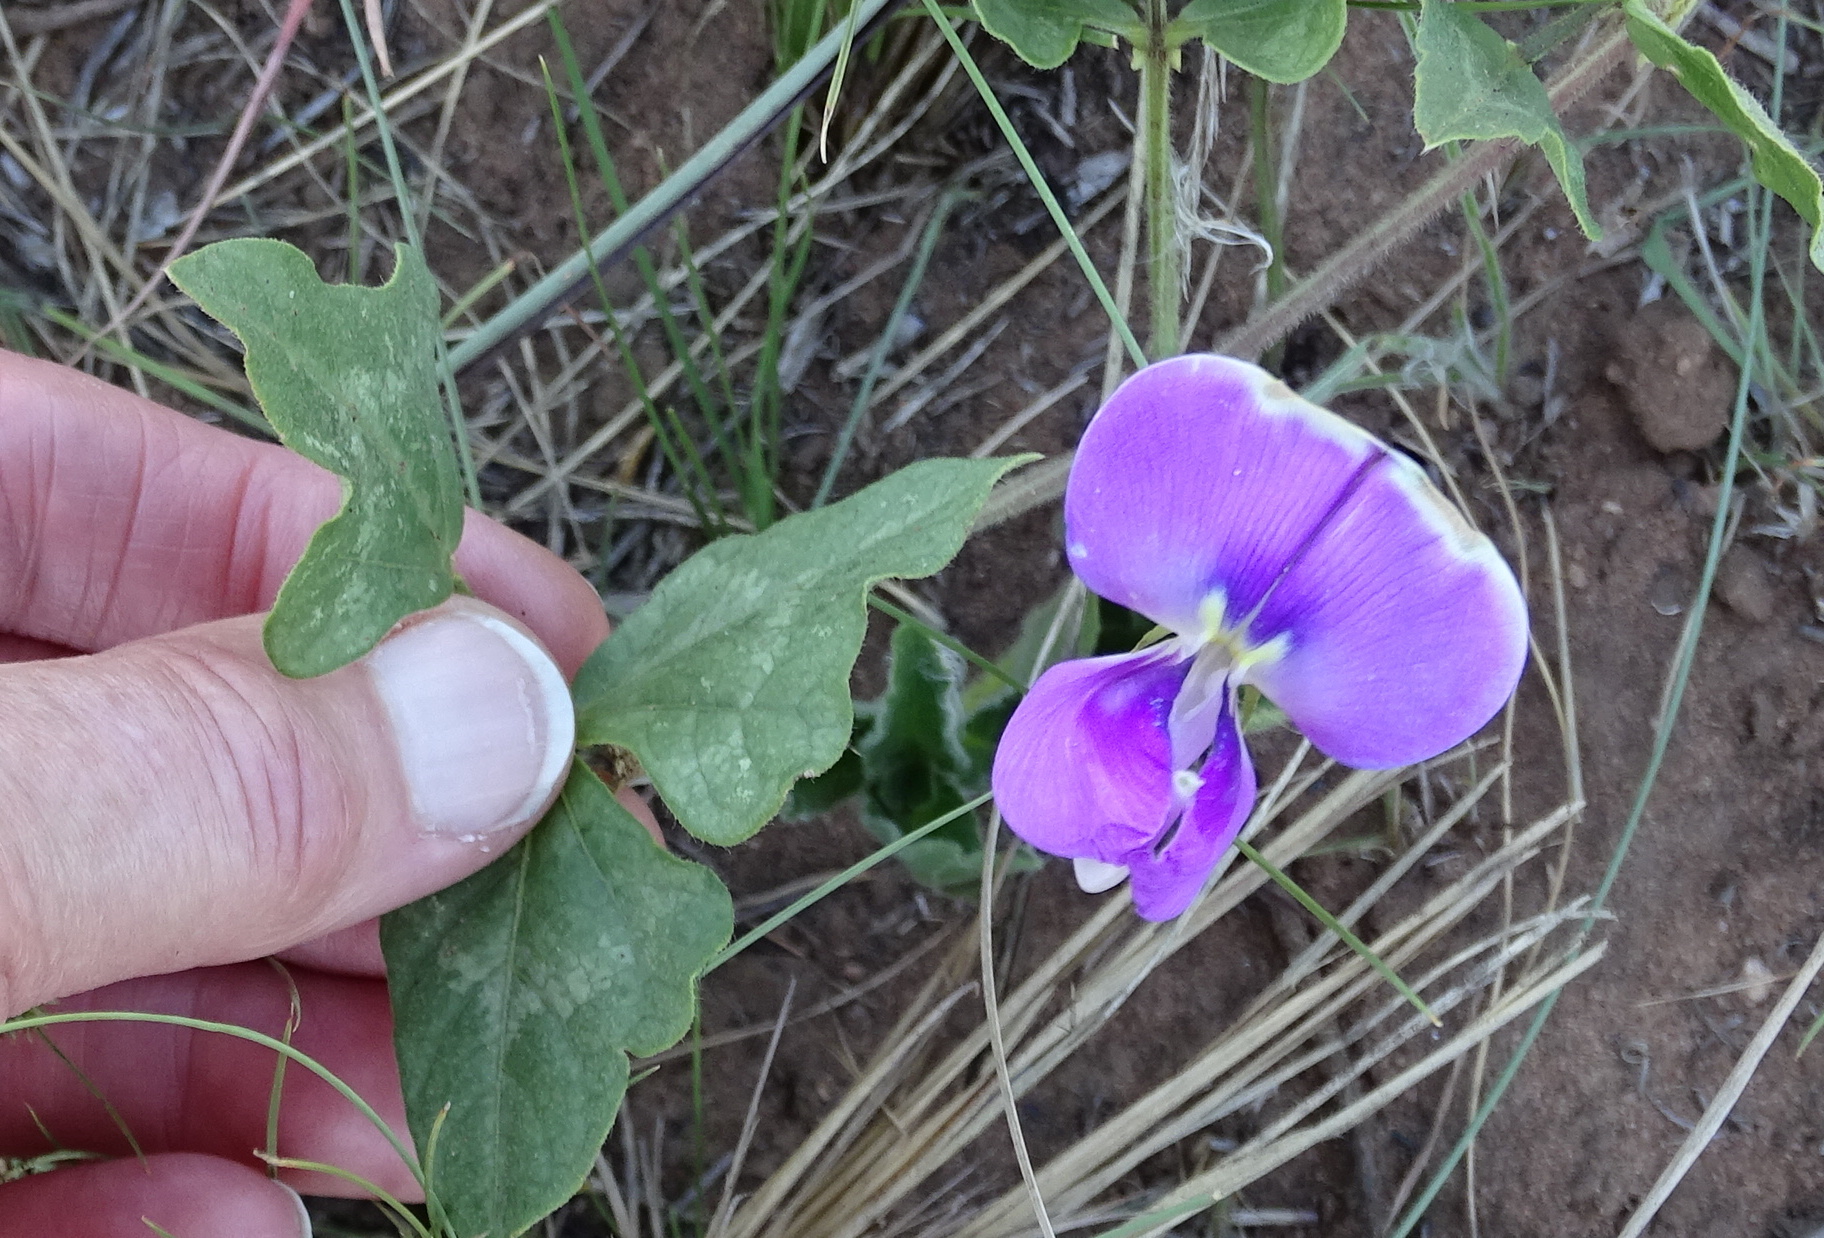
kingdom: Plantae
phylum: Tracheophyta
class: Magnoliopsida
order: Fabales
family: Fabaceae
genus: Vigna
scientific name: Vigna unguiculata
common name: Cowpea
